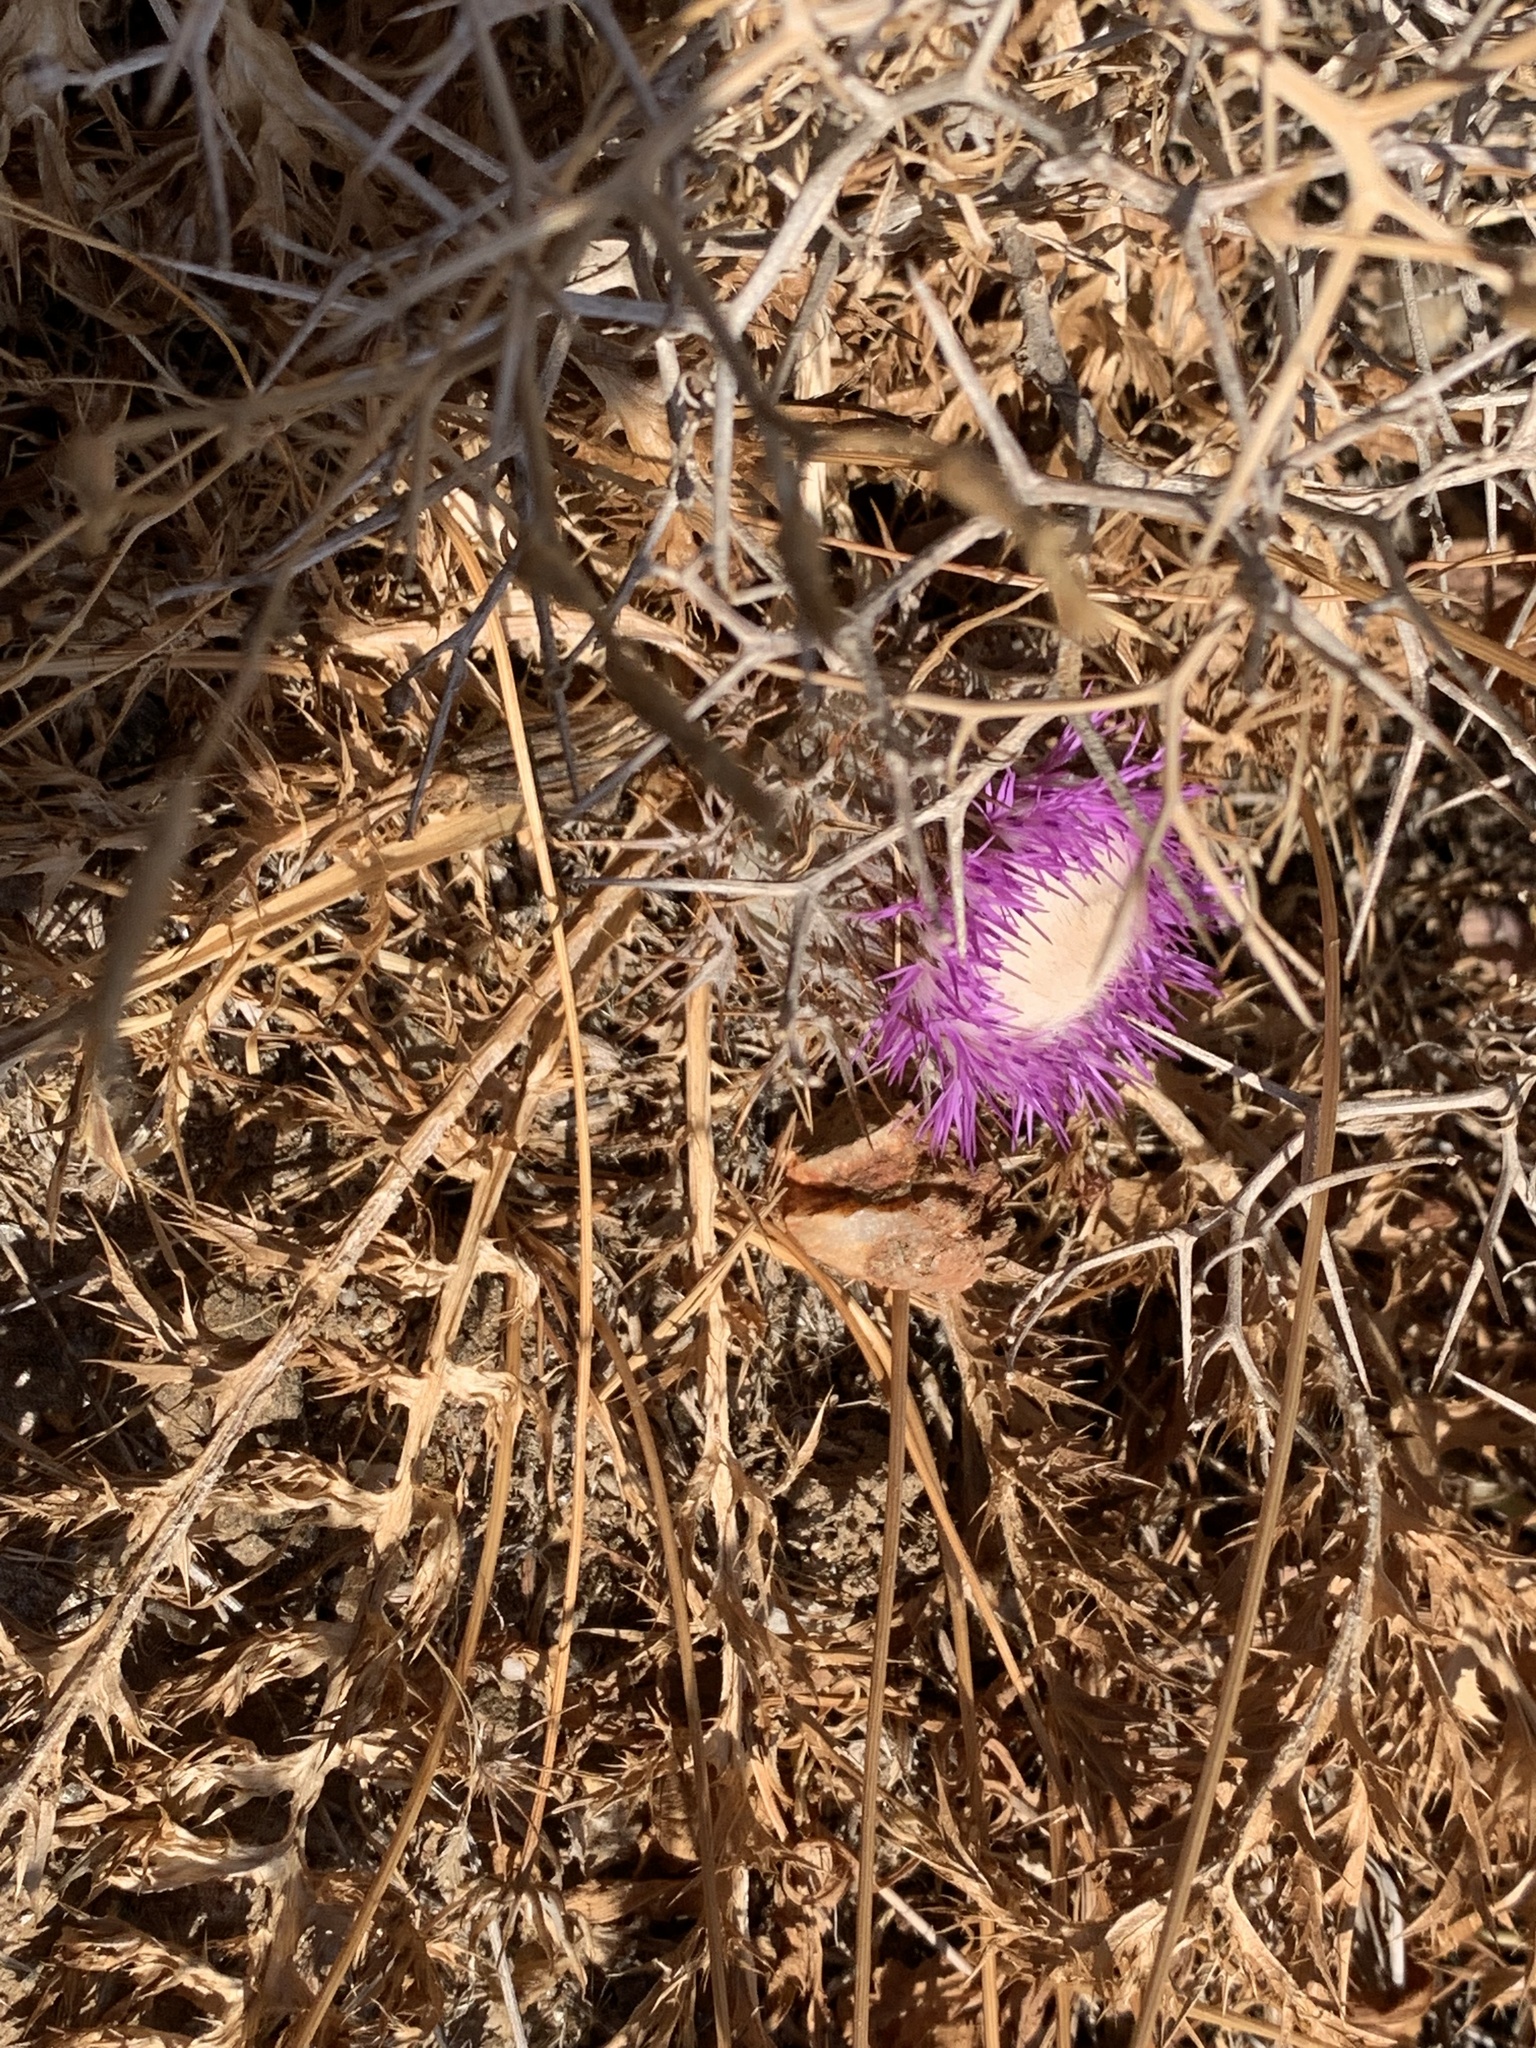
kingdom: Plantae
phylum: Tracheophyta
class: Magnoliopsida
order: Asterales
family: Asteraceae
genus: Chamaeleon
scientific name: Chamaeleon gummifer
